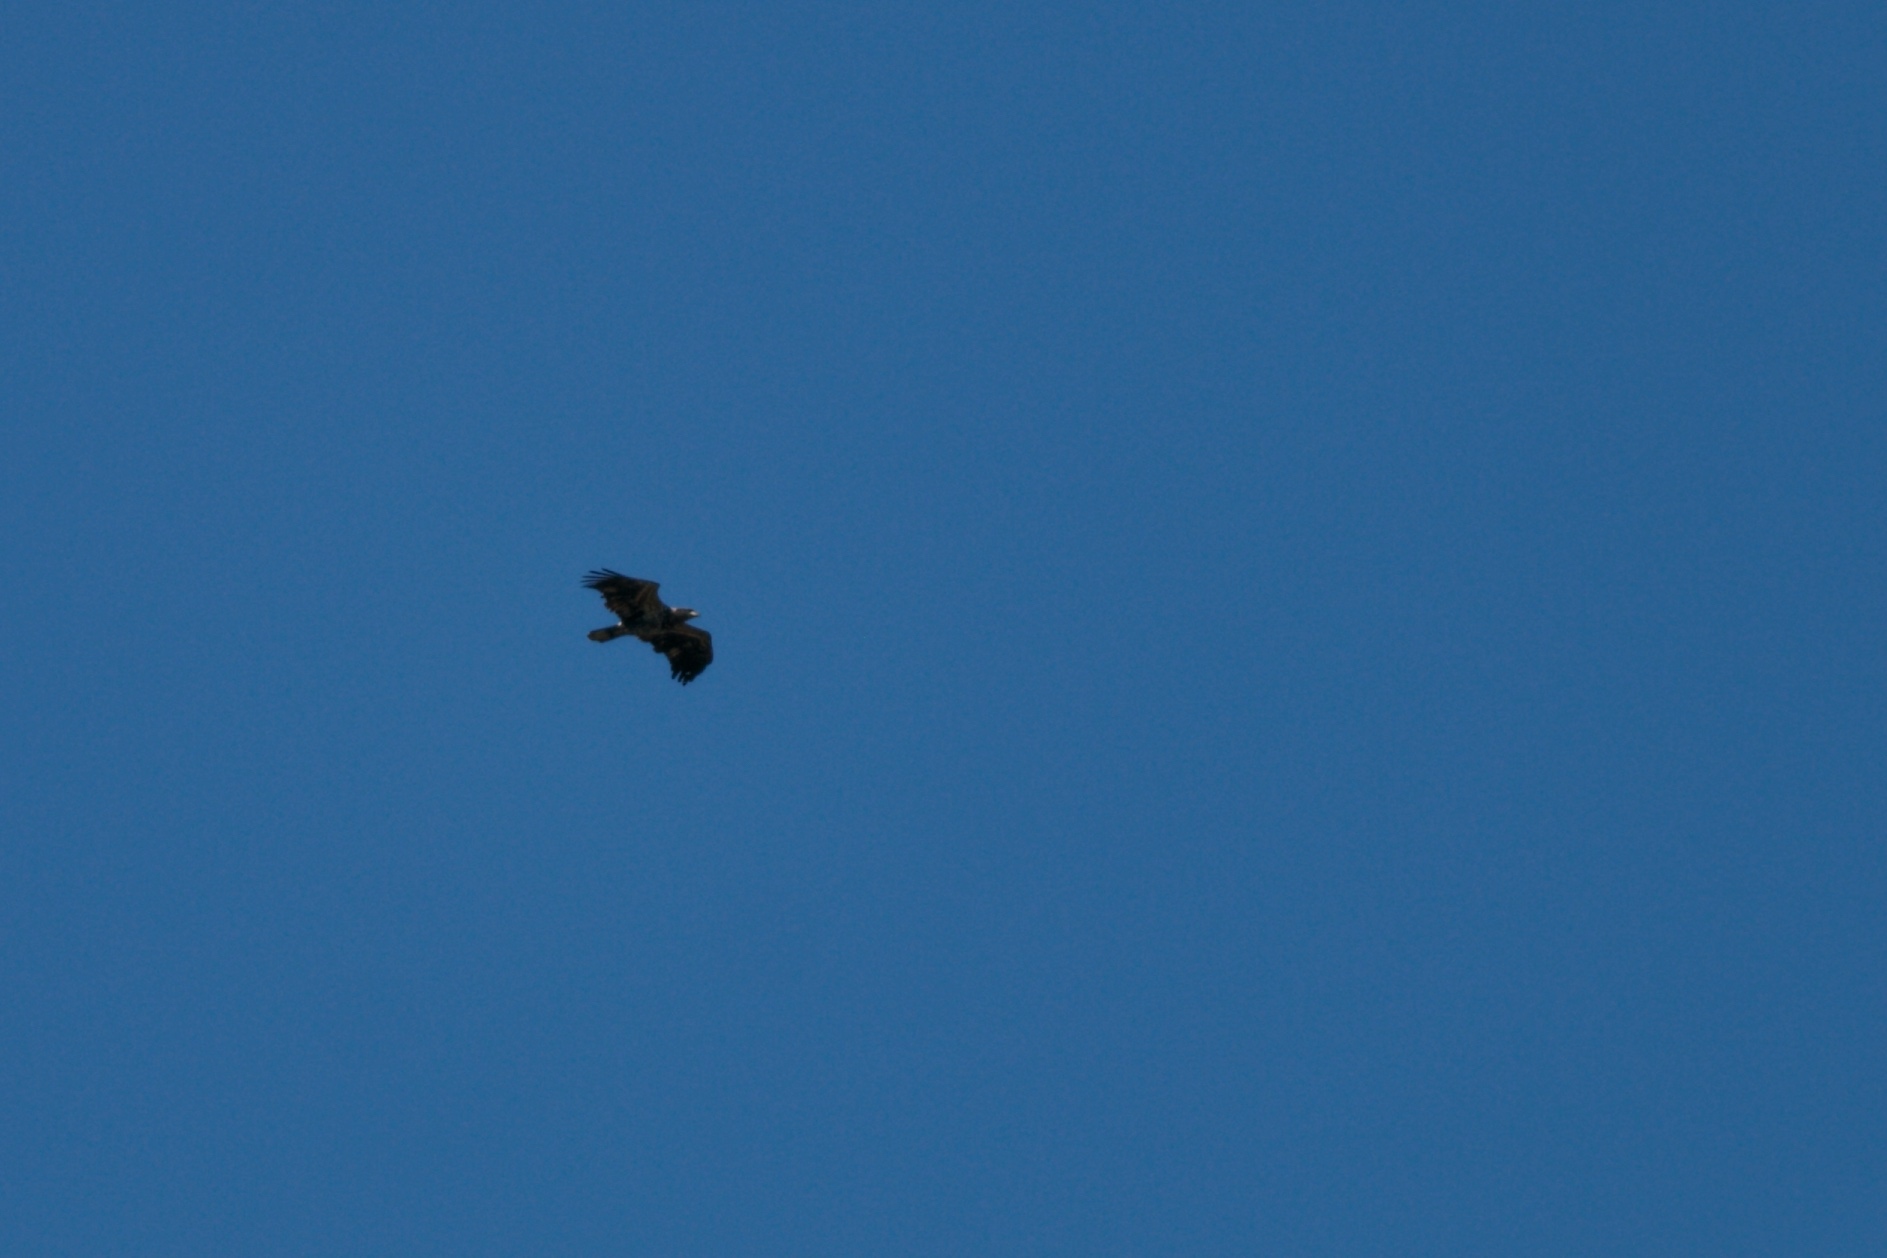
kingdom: Animalia
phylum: Chordata
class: Aves
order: Accipitriformes
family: Accipitridae
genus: Haliaeetus
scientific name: Haliaeetus leucocephalus
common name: Bald eagle
